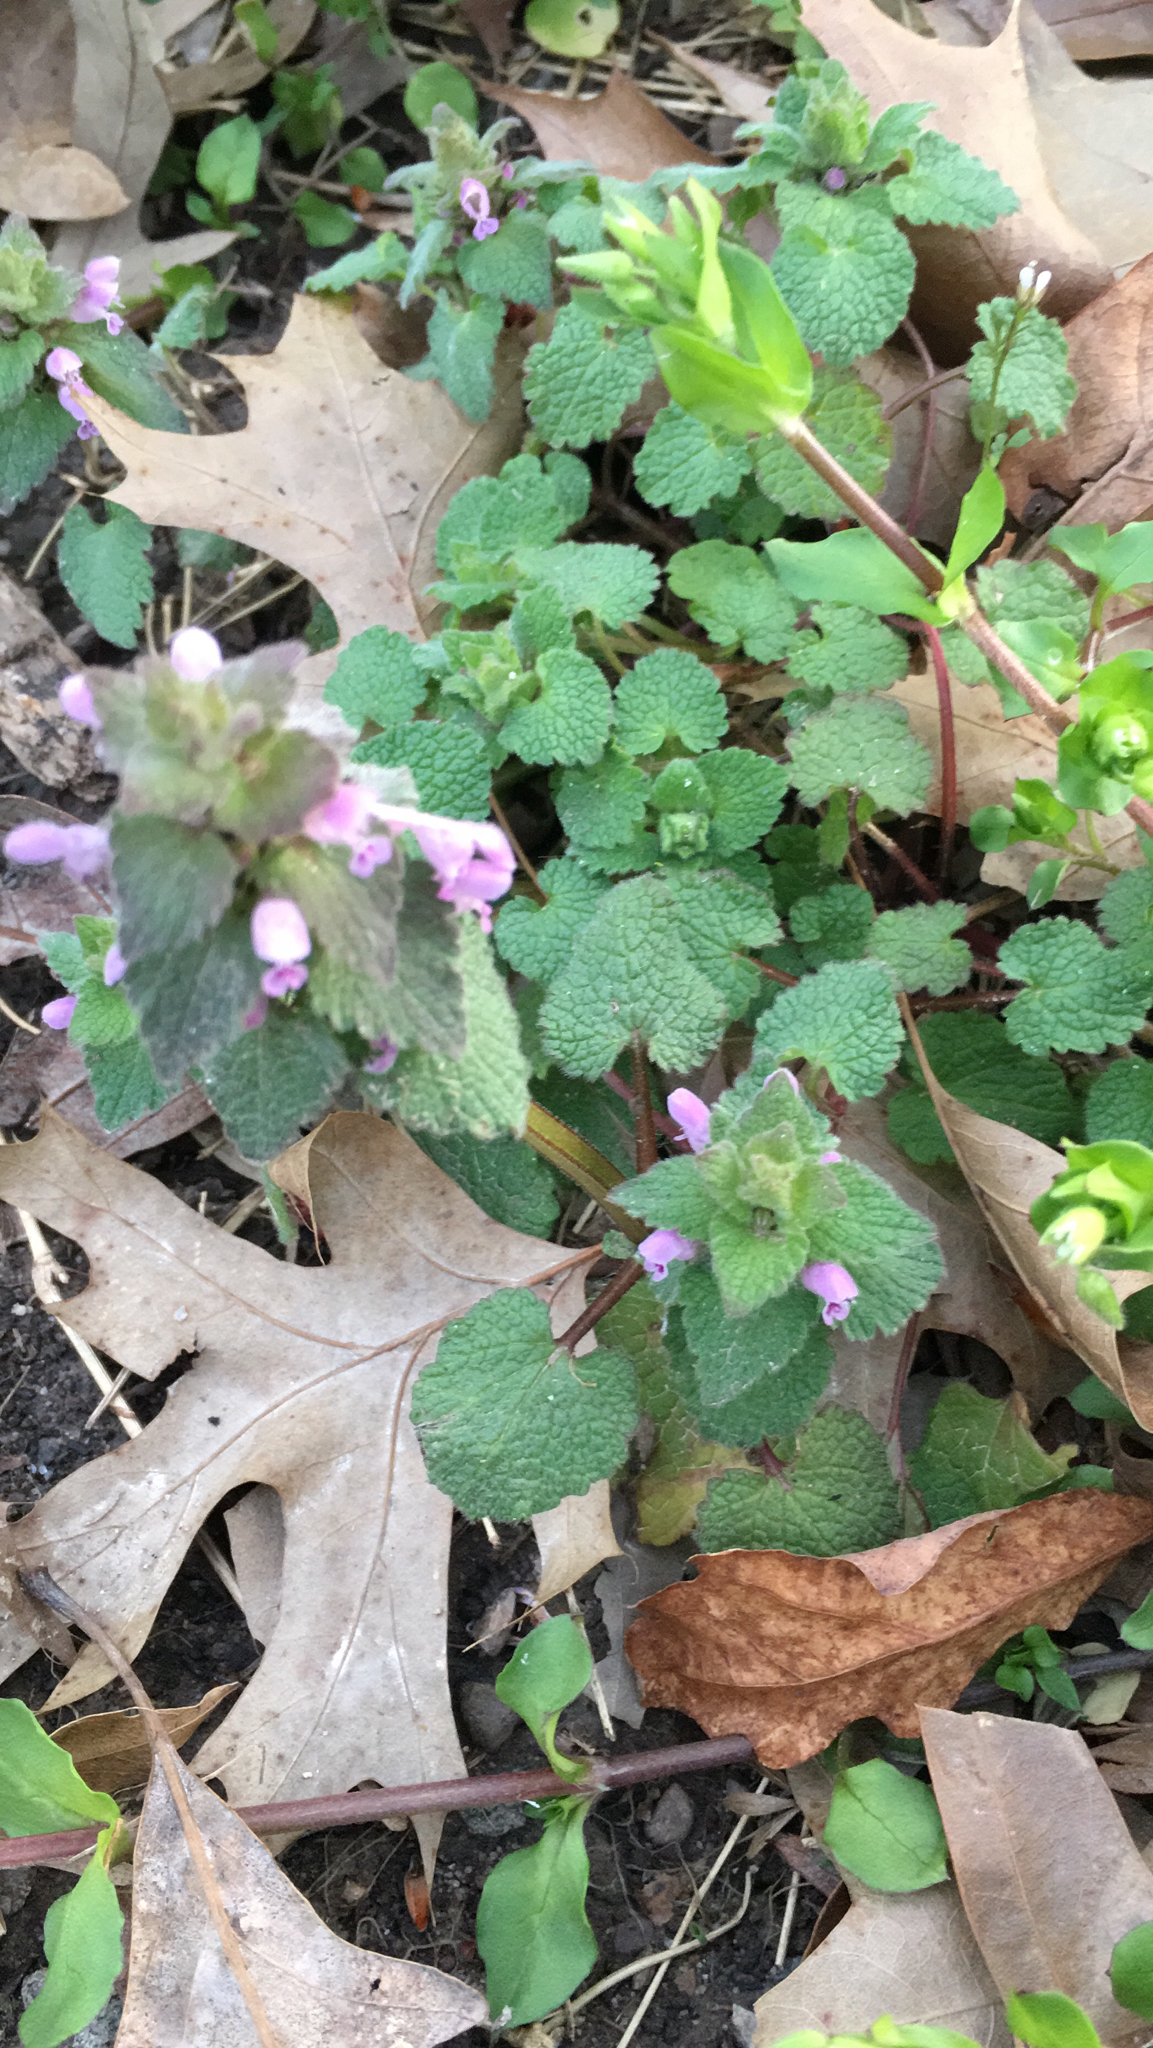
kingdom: Plantae
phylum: Tracheophyta
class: Magnoliopsida
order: Lamiales
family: Lamiaceae
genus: Lamium
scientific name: Lamium purpureum
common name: Red dead-nettle
